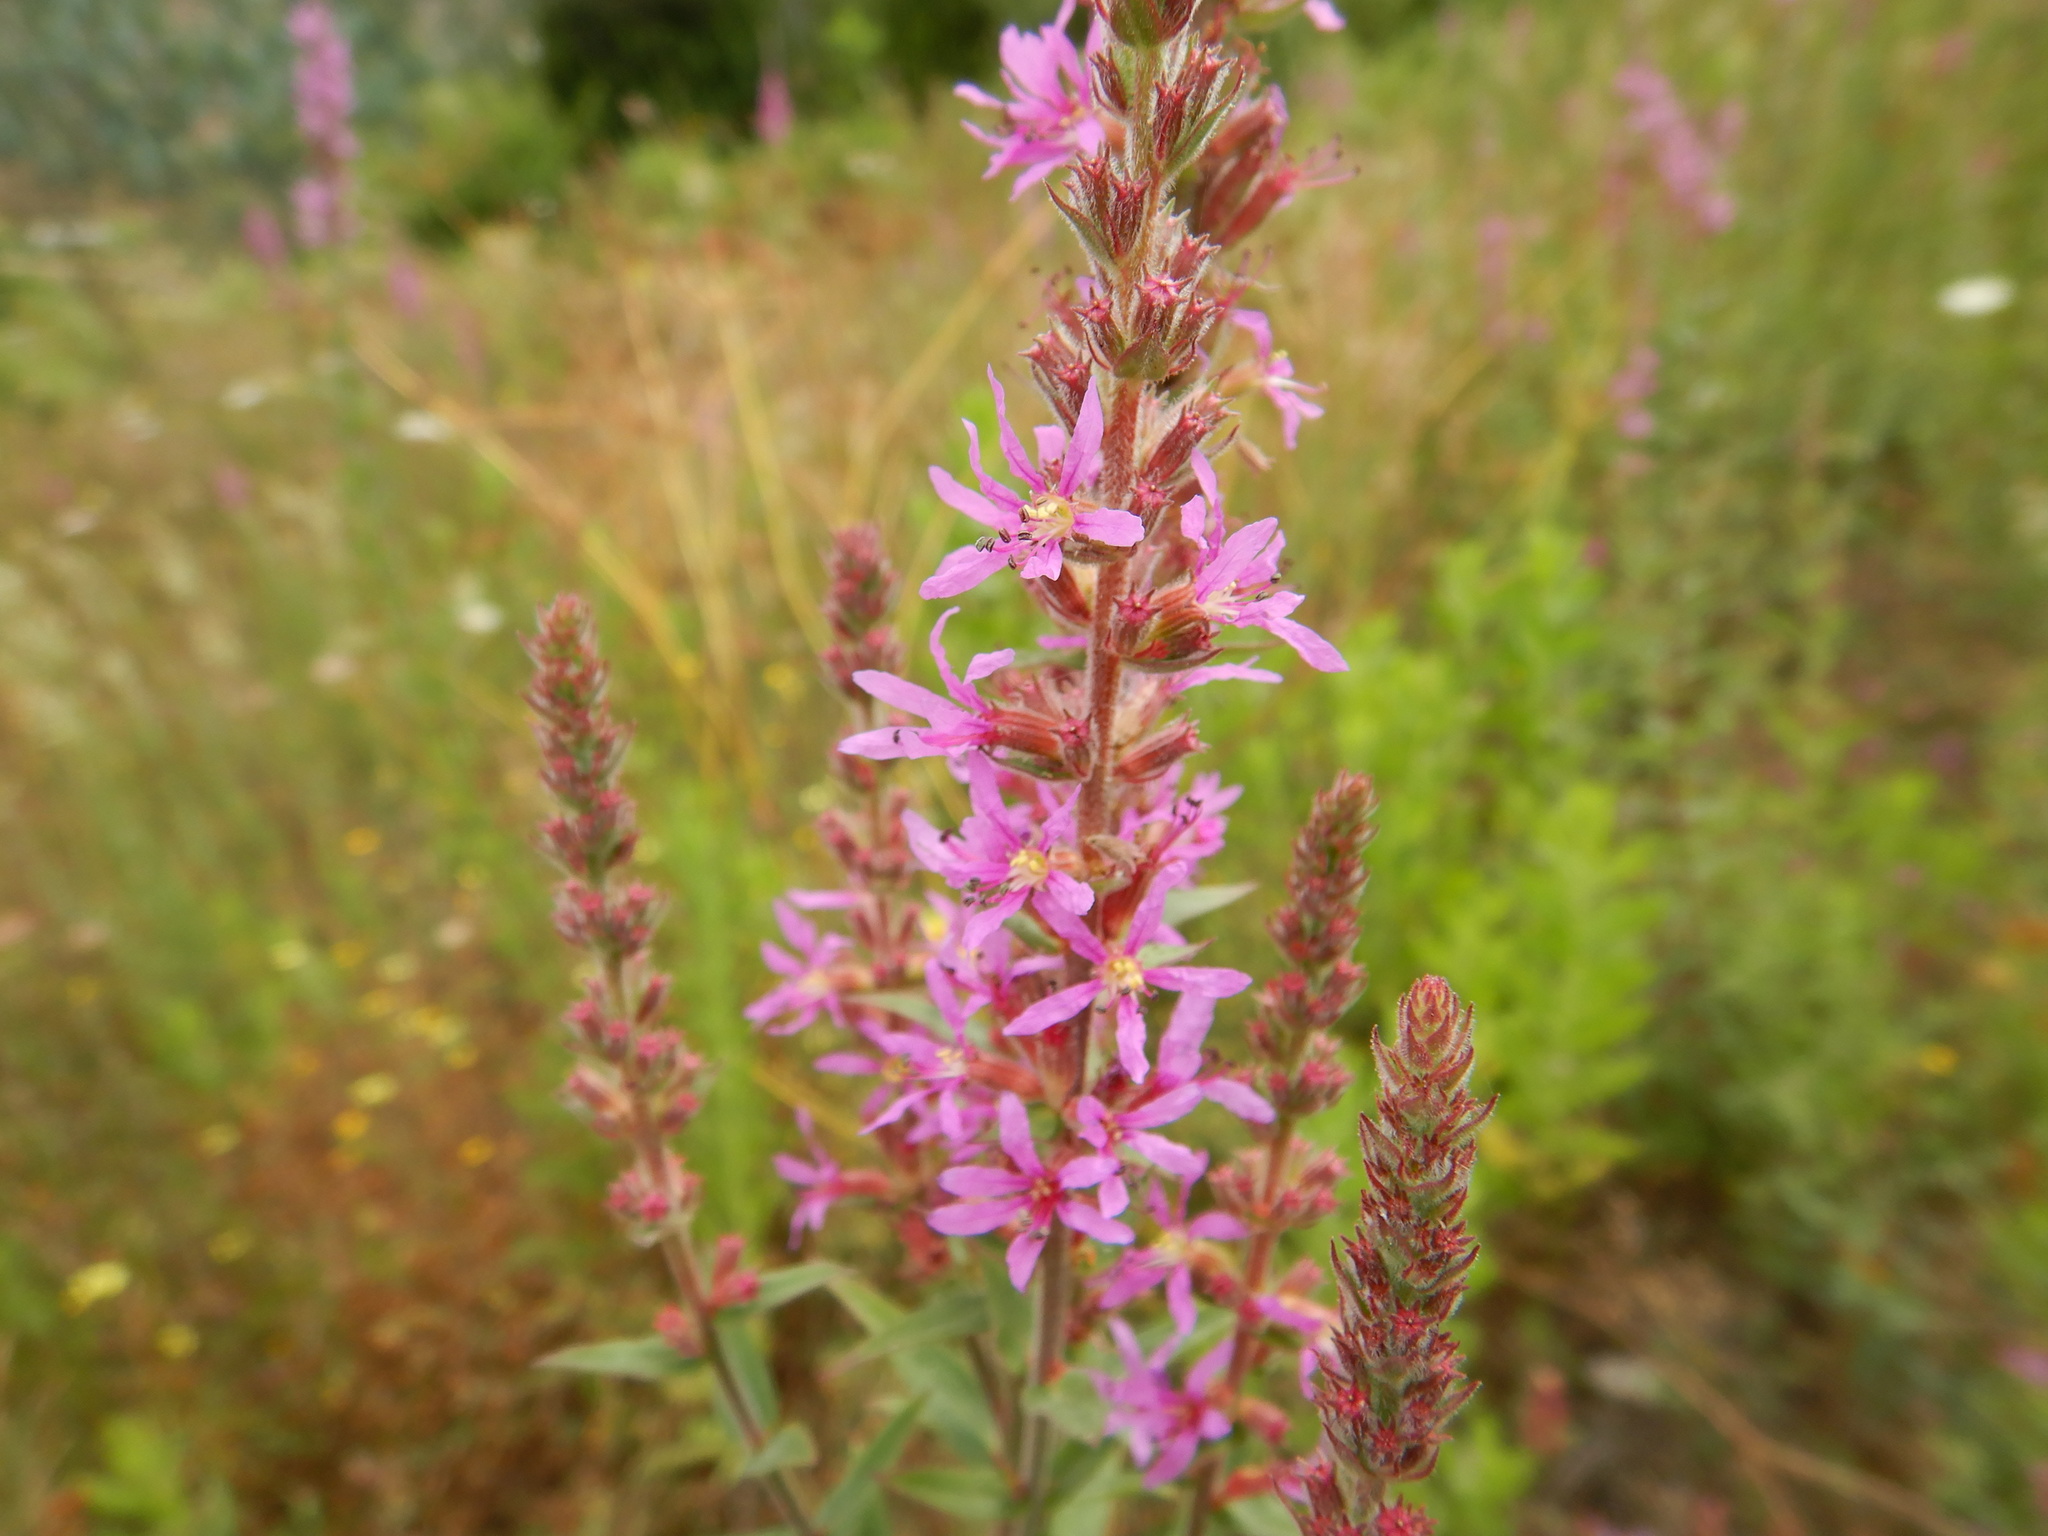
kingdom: Plantae
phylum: Tracheophyta
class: Magnoliopsida
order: Myrtales
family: Lythraceae
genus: Lythrum
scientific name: Lythrum salicaria
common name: Purple loosestrife
